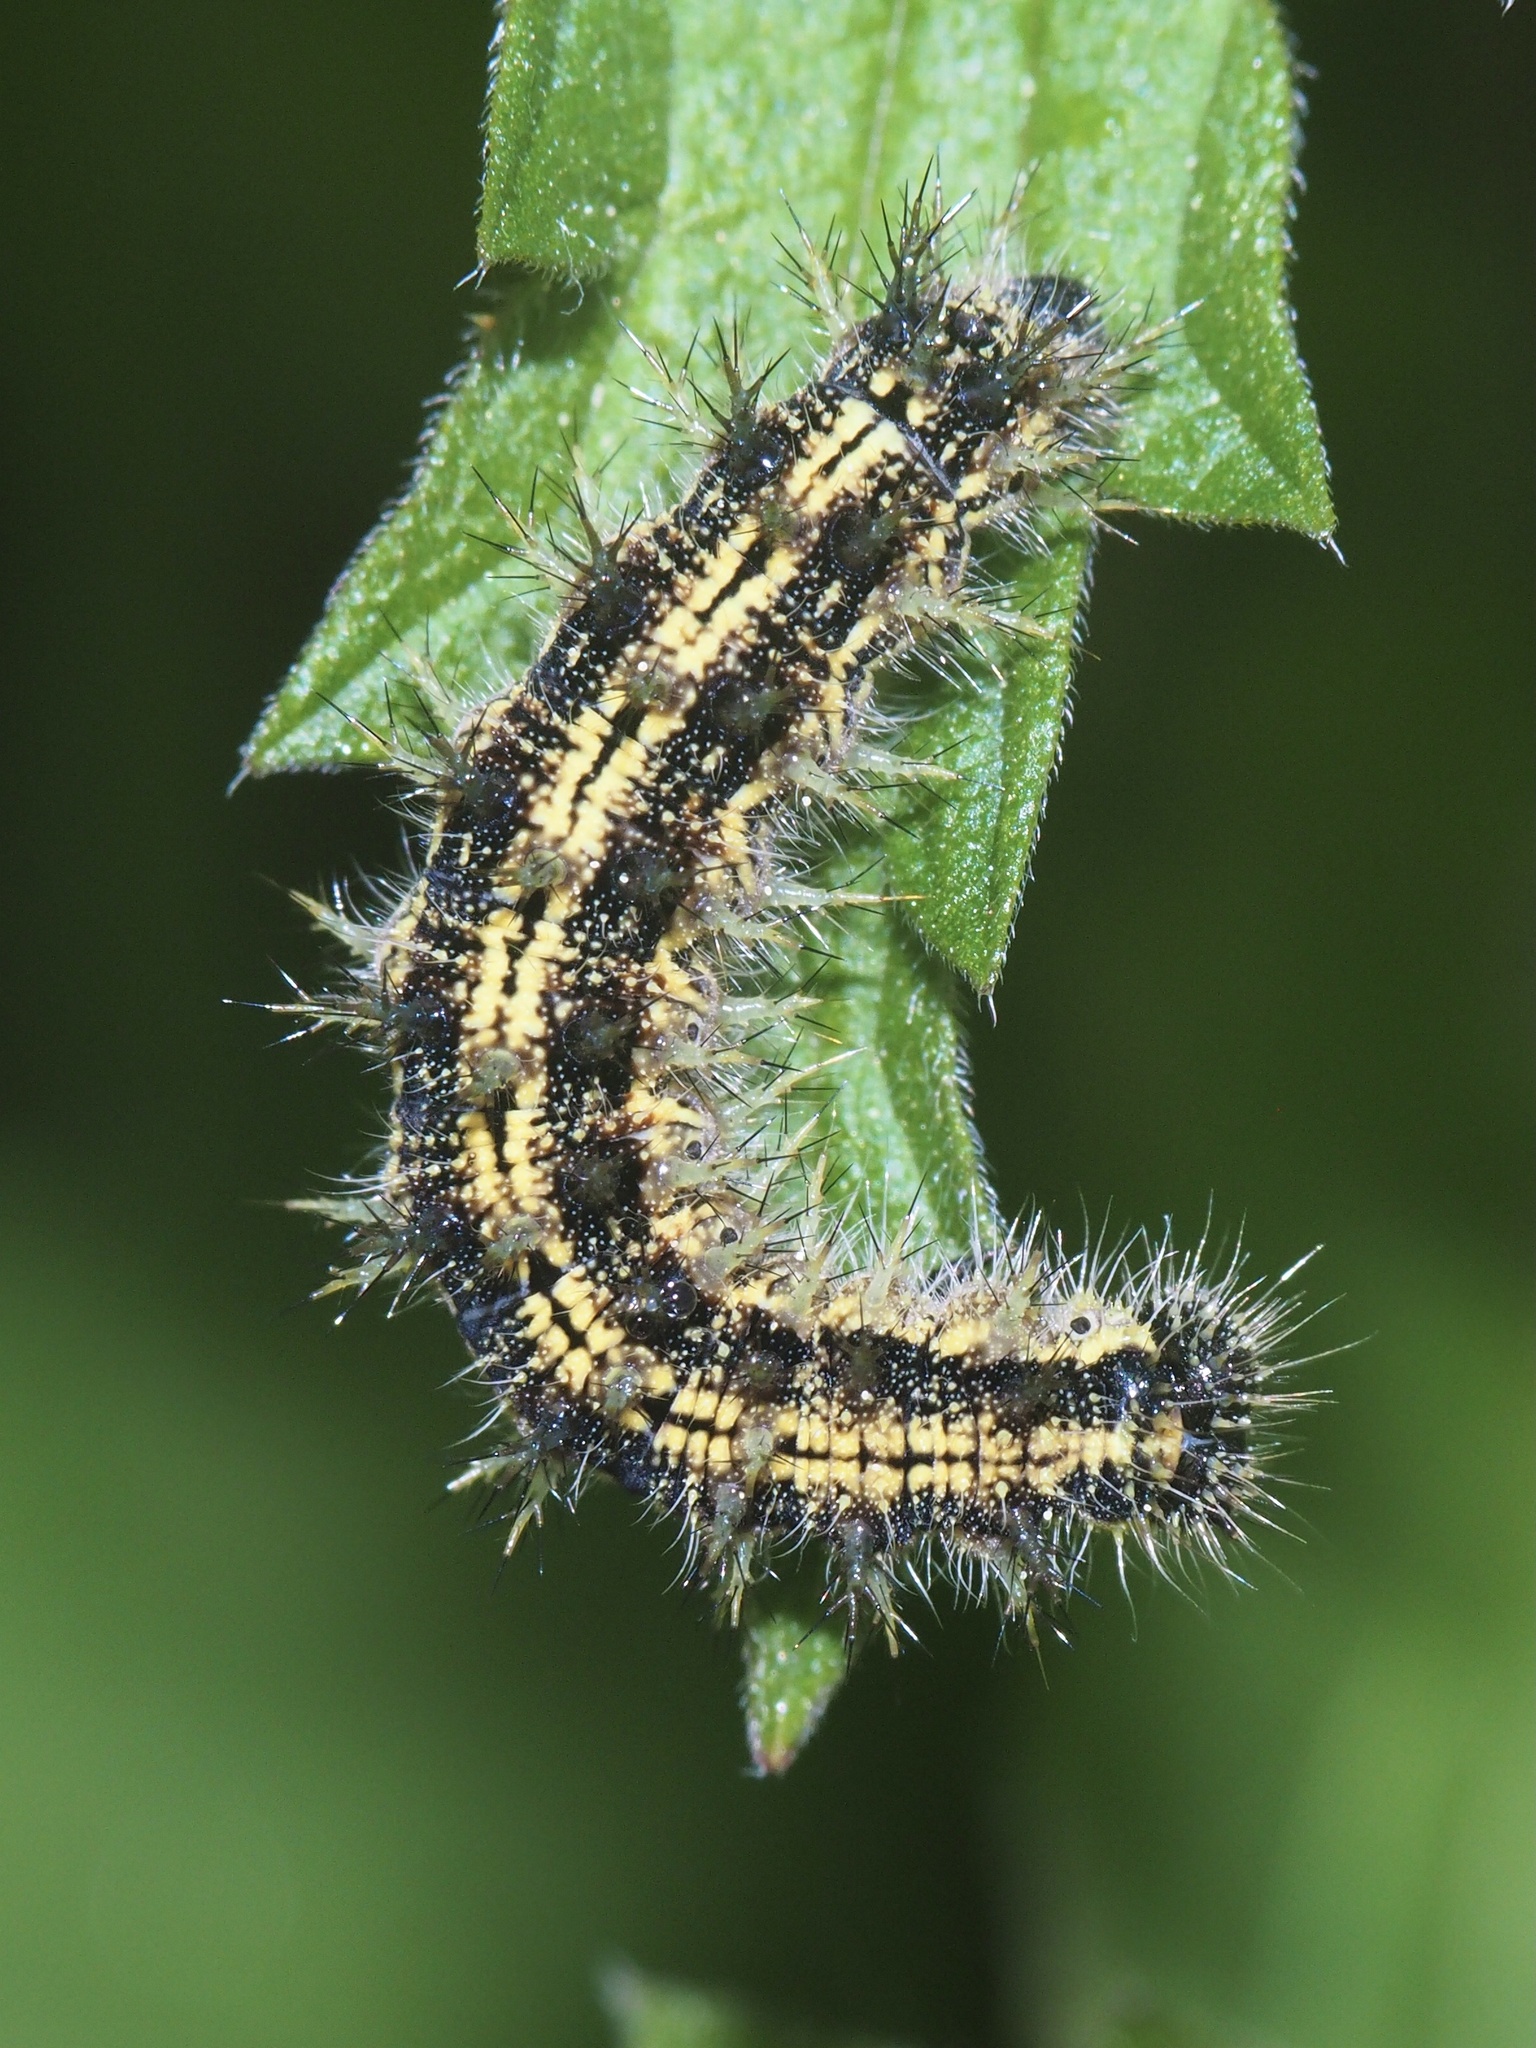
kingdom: Animalia
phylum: Arthropoda
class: Insecta
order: Lepidoptera
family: Nymphalidae
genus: Aglais
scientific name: Aglais urticae
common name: Small tortoiseshell
